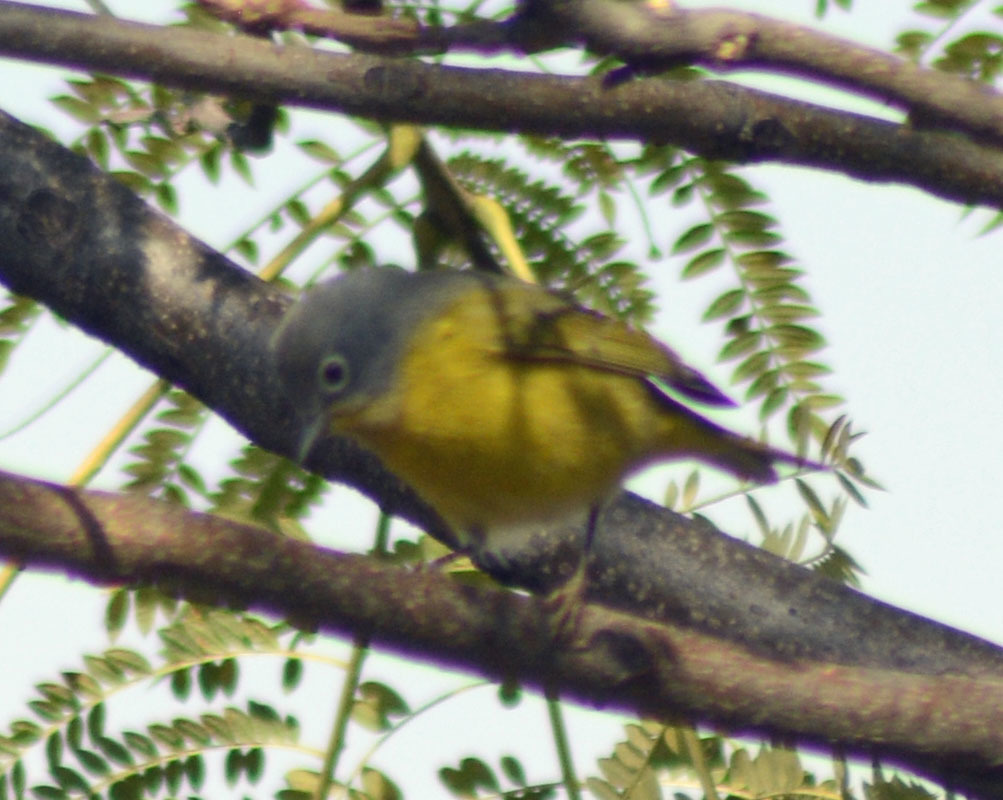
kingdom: Animalia
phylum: Chordata
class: Aves
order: Passeriformes
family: Parulidae
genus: Leiothlypis
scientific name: Leiothlypis ruficapilla
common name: Nashville warbler
